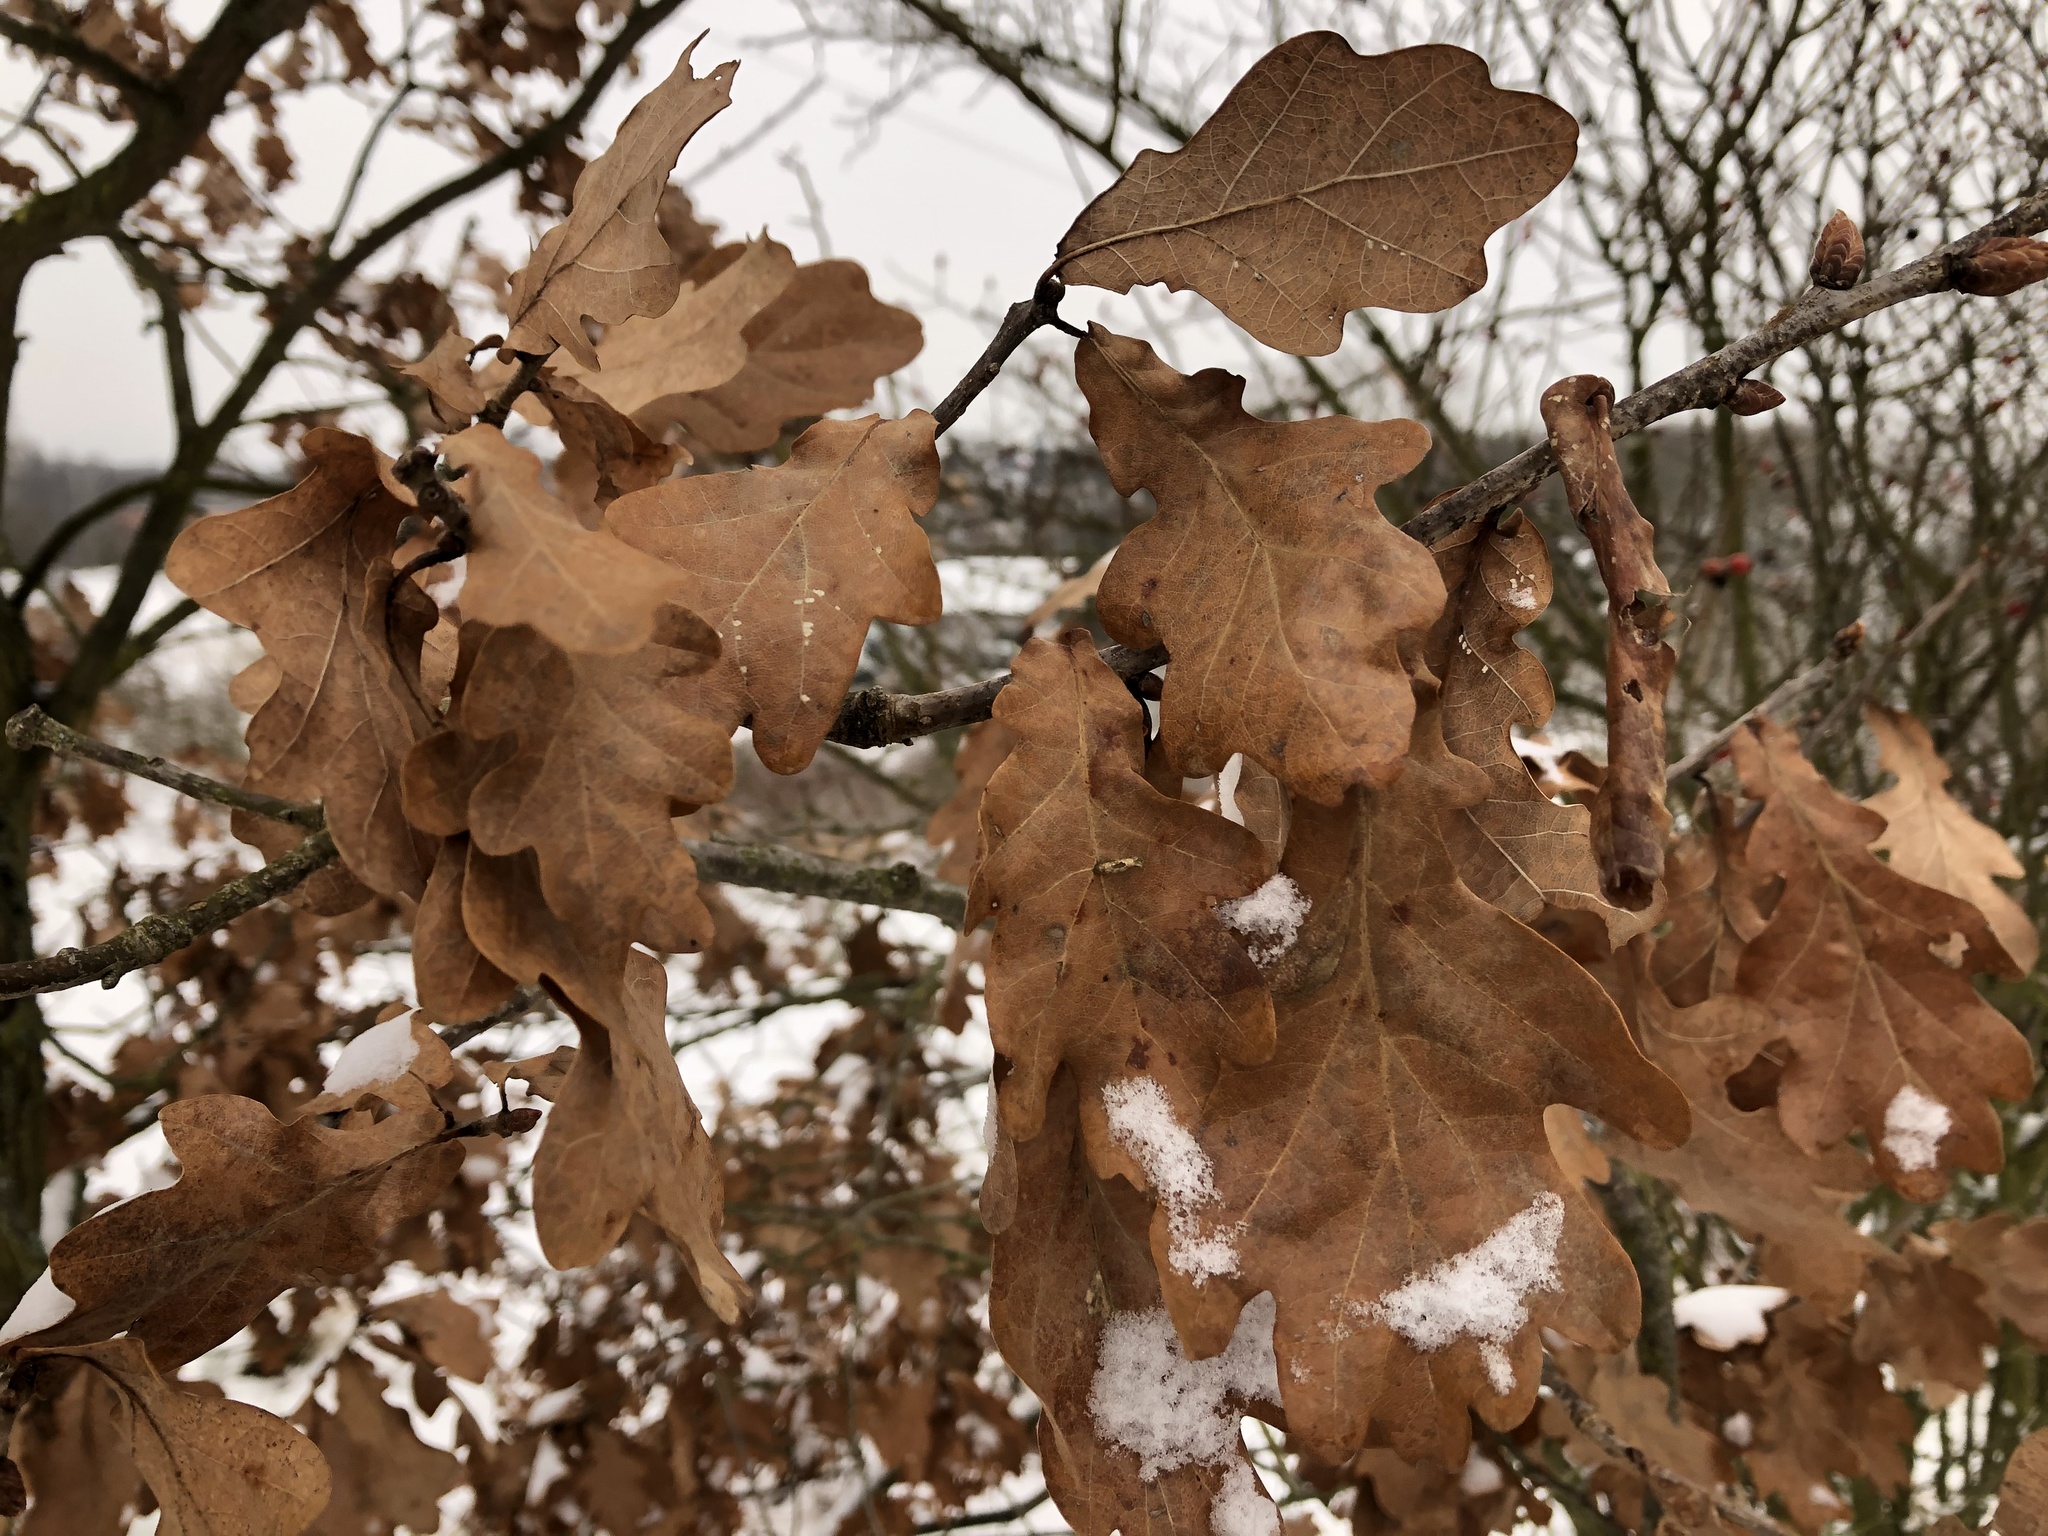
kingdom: Plantae
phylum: Tracheophyta
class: Magnoliopsida
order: Fagales
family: Fagaceae
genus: Quercus
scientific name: Quercus robur
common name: Pedunculate oak
